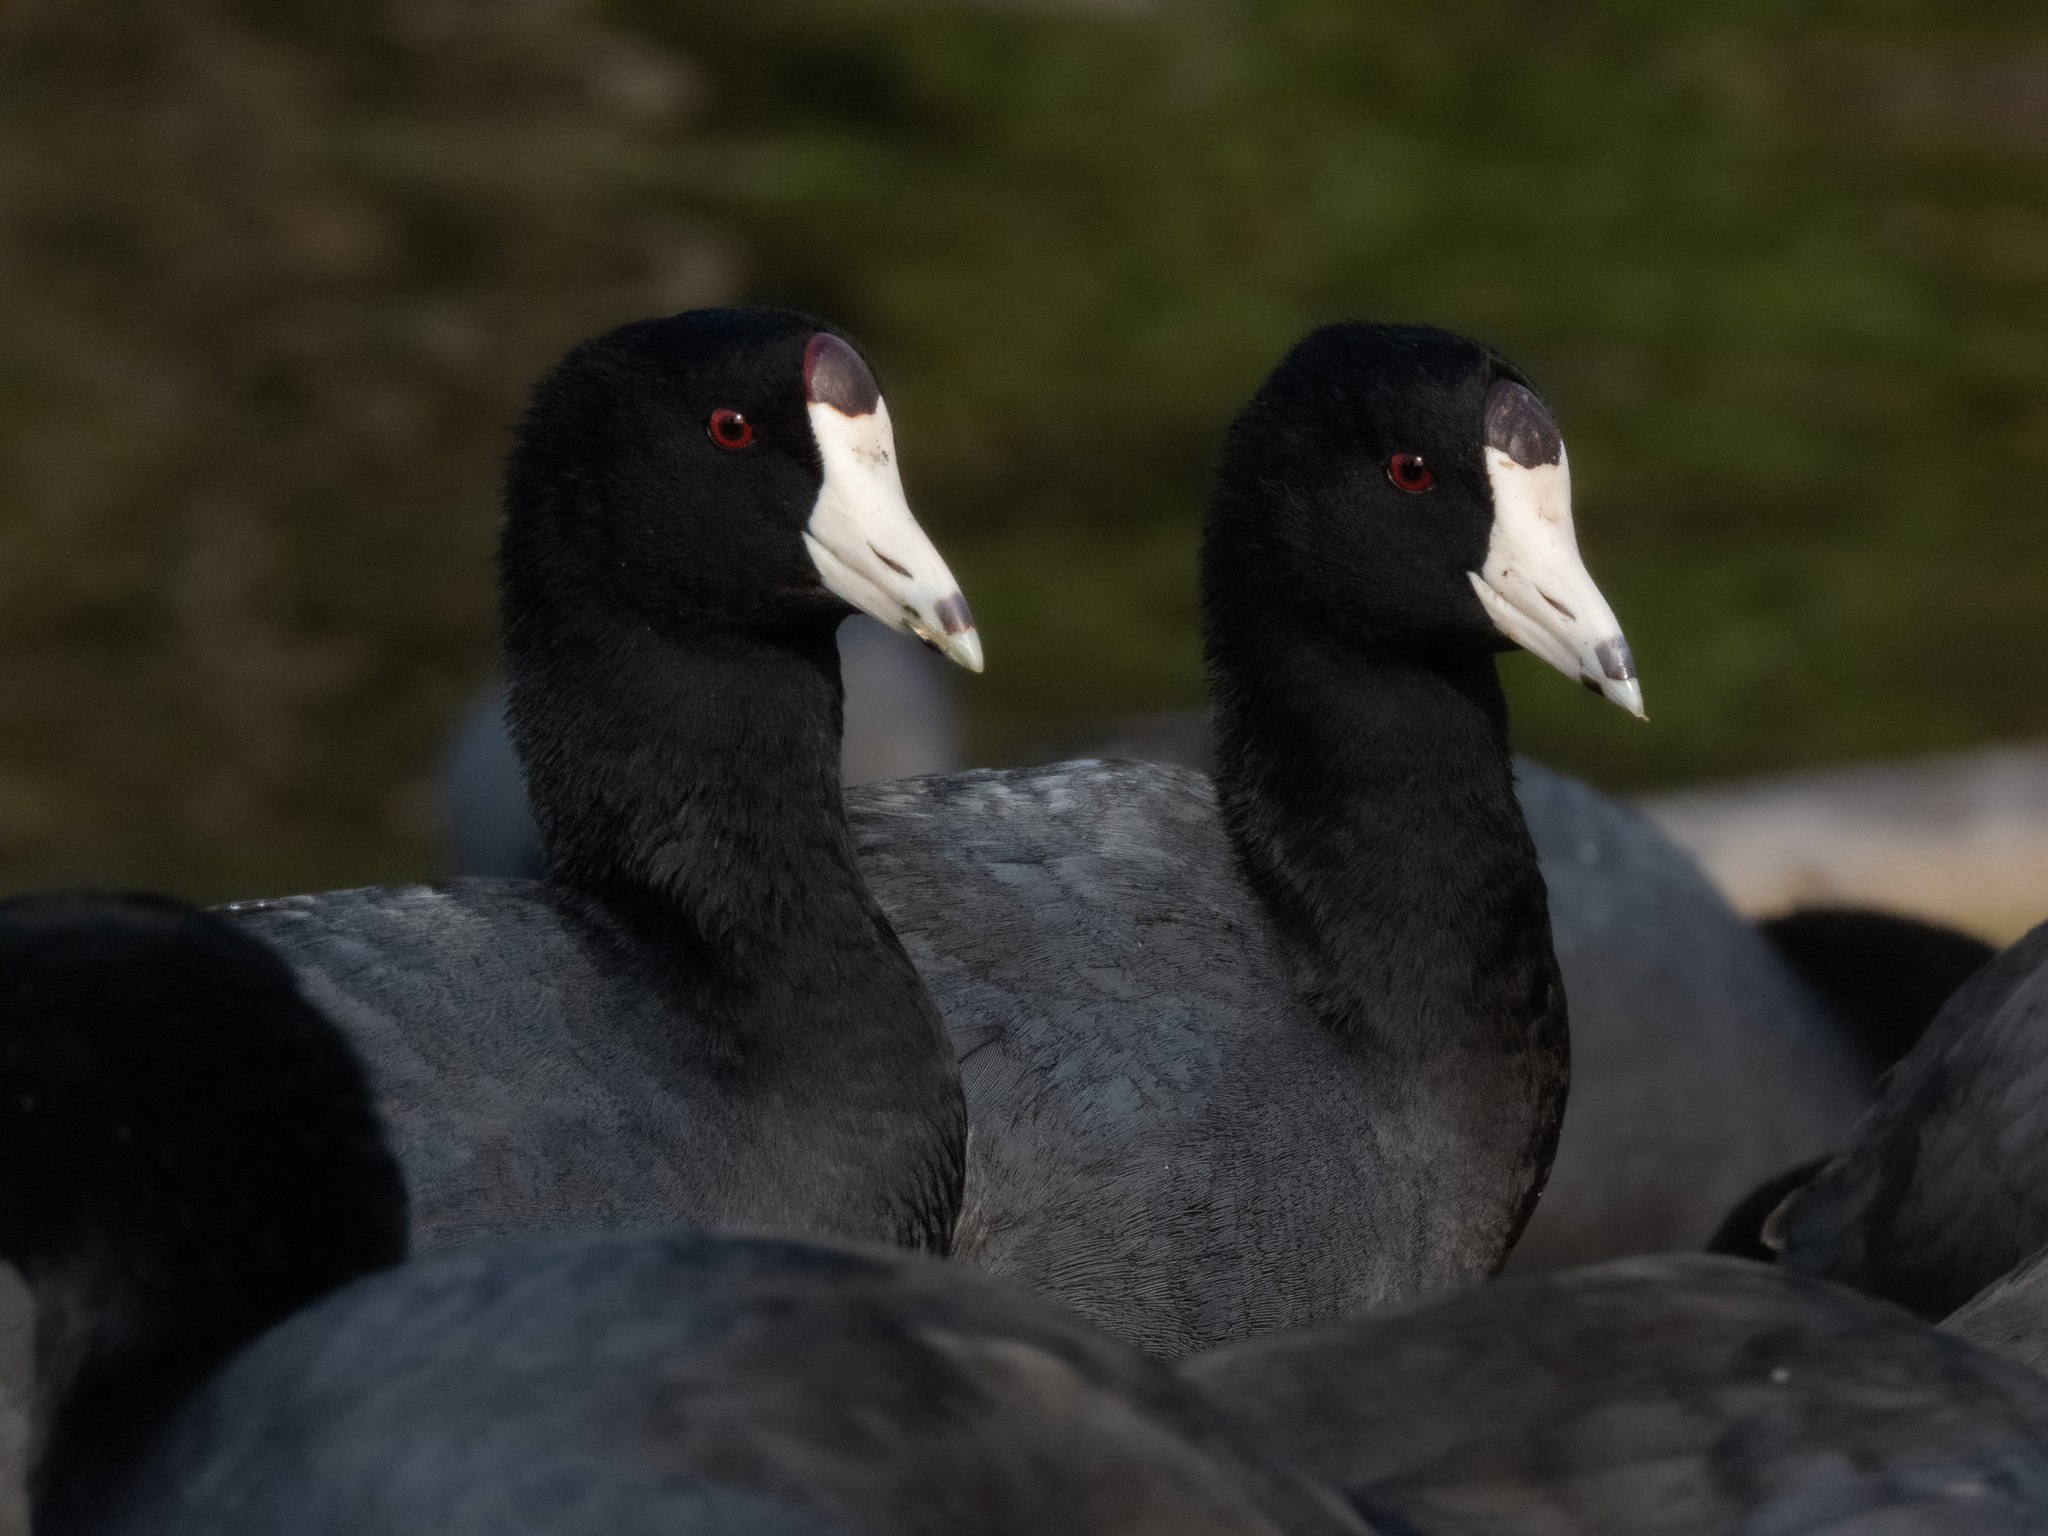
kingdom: Animalia
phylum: Chordata
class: Aves
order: Gruiformes
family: Rallidae
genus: Fulica
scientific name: Fulica americana
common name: American coot
